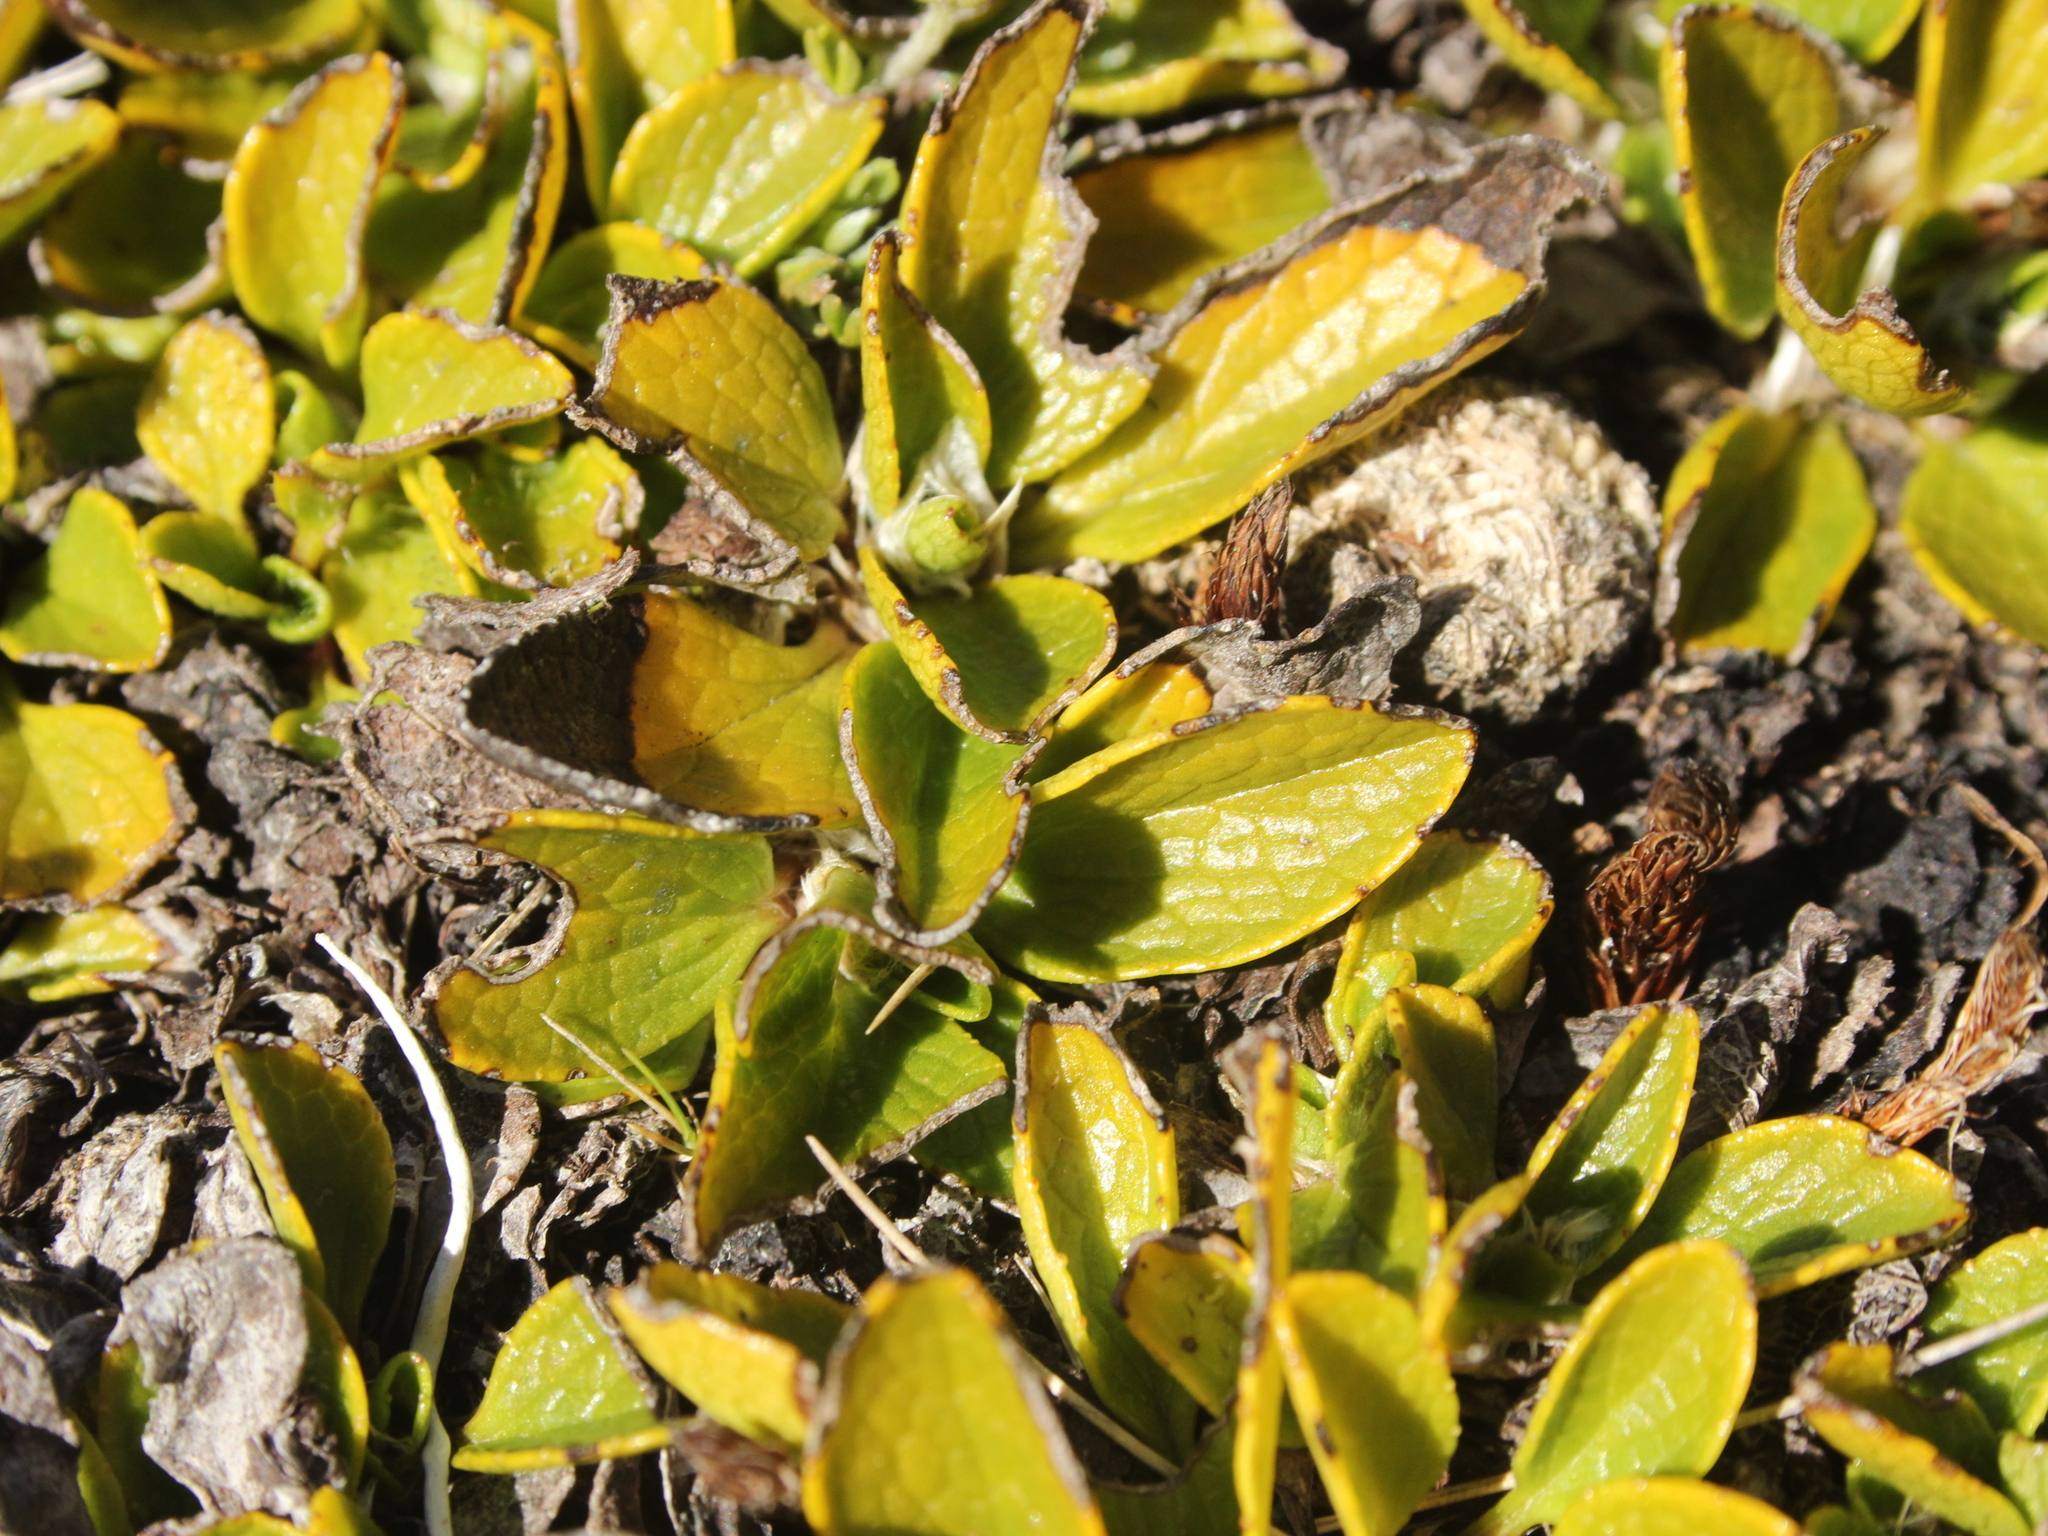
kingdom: Plantae
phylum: Tracheophyta
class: Magnoliopsida
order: Asterales
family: Asteraceae
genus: Brachyglottis
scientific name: Brachyglottis bellidioides
